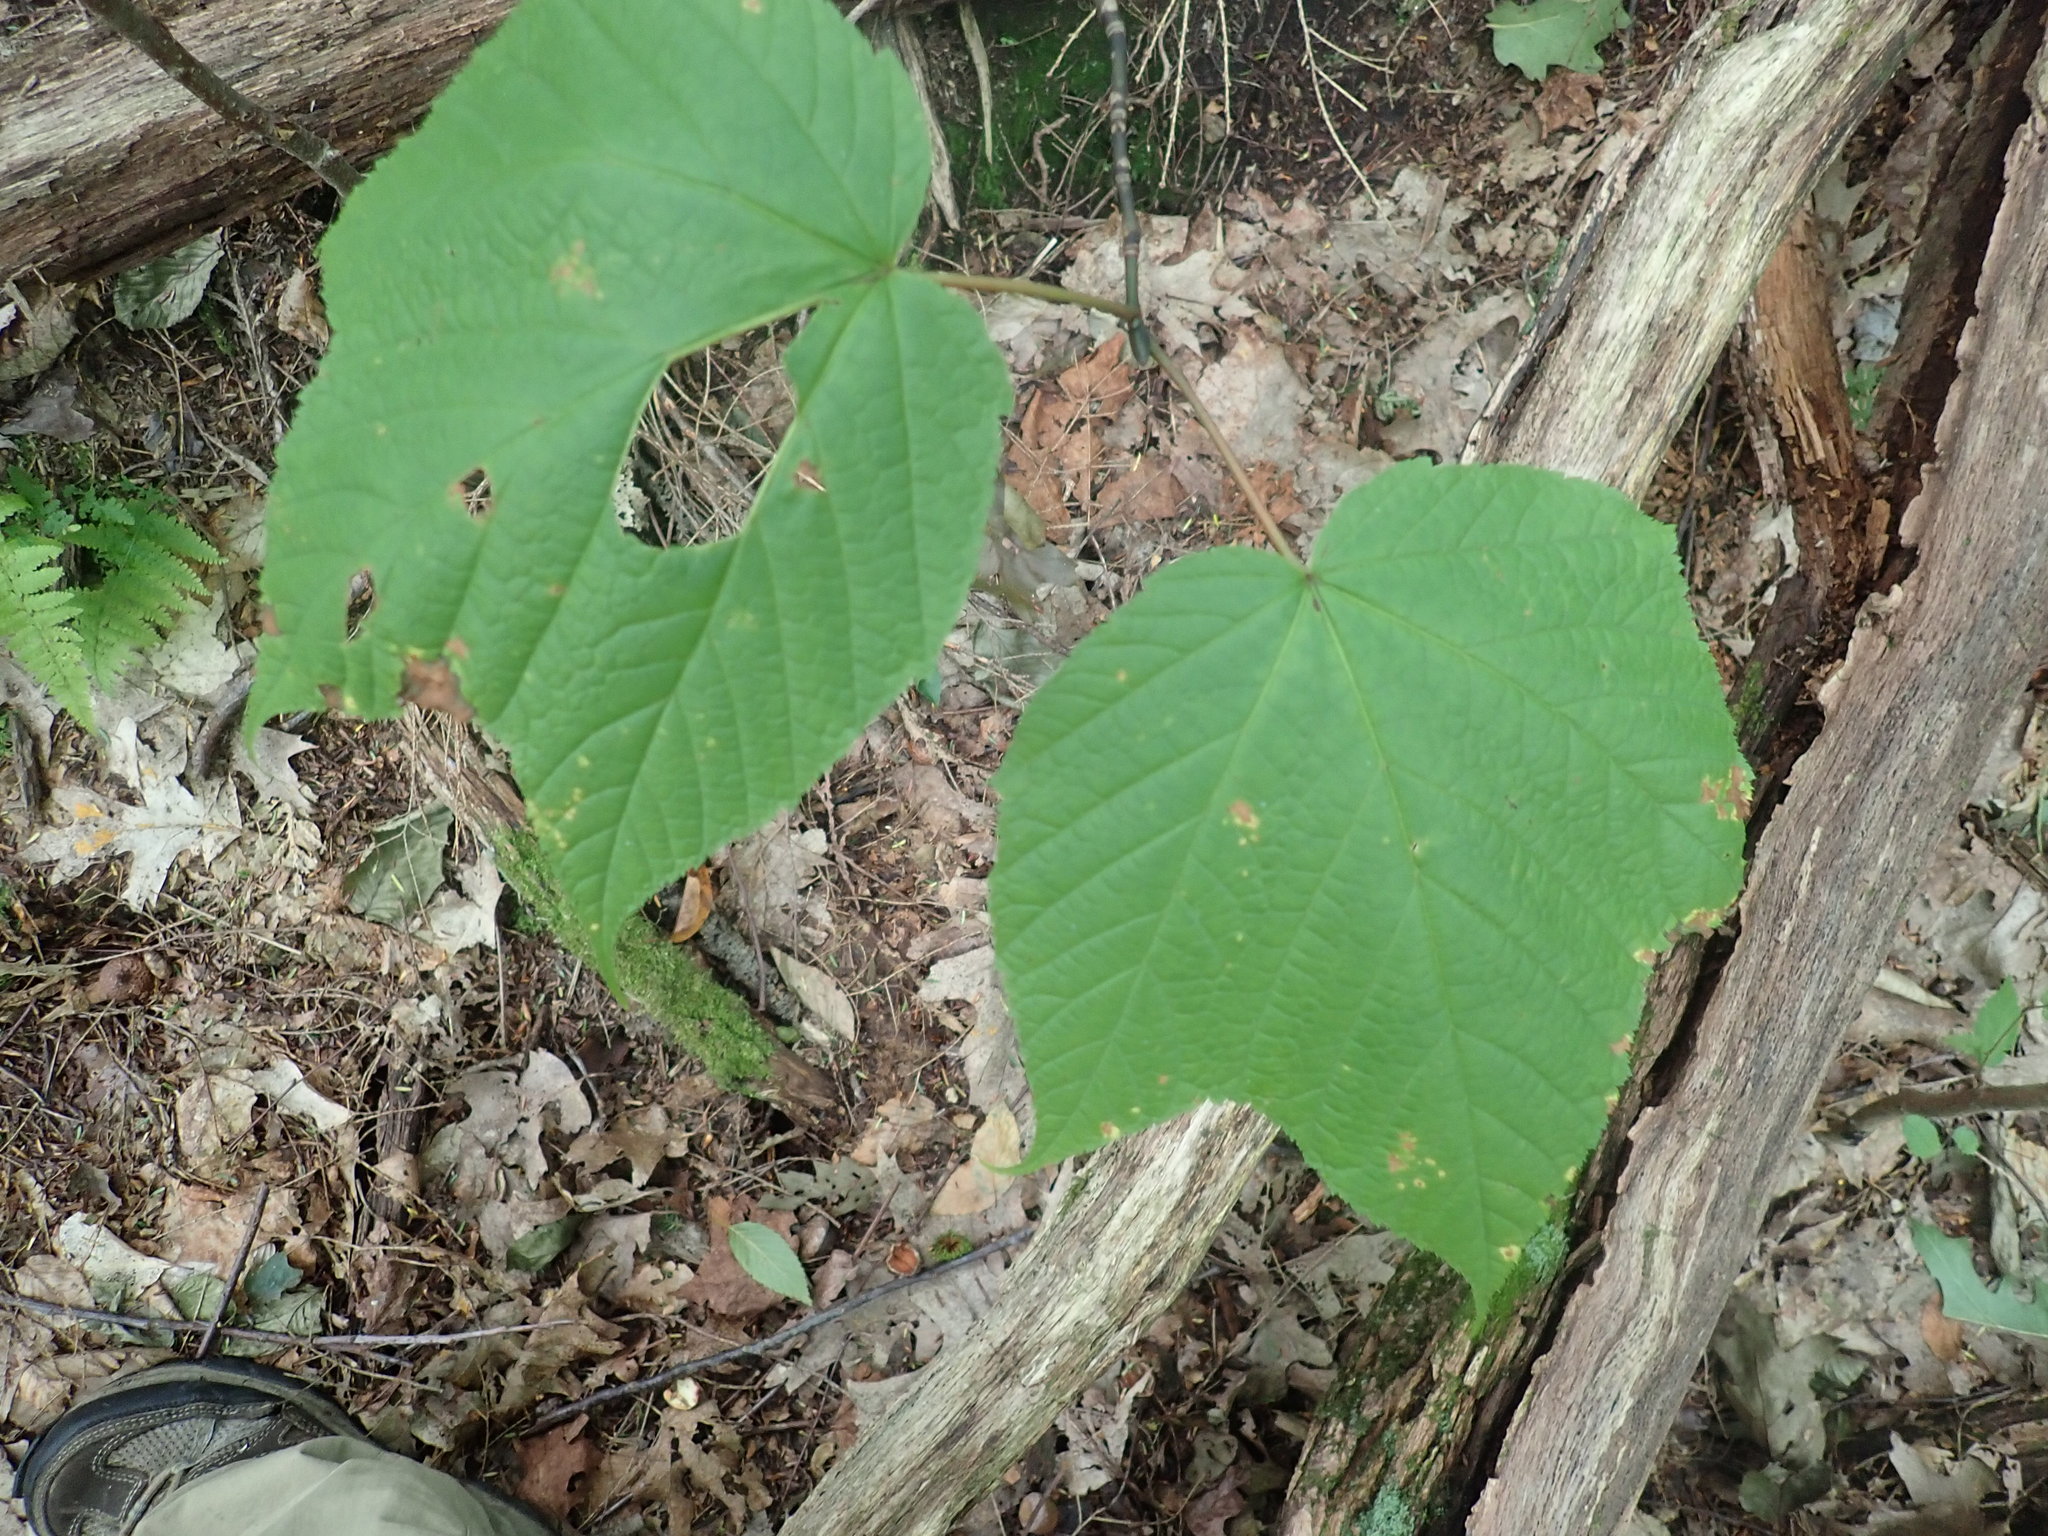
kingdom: Plantae
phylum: Tracheophyta
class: Magnoliopsida
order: Sapindales
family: Sapindaceae
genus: Acer
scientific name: Acer pensylvanicum
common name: Moosewood
